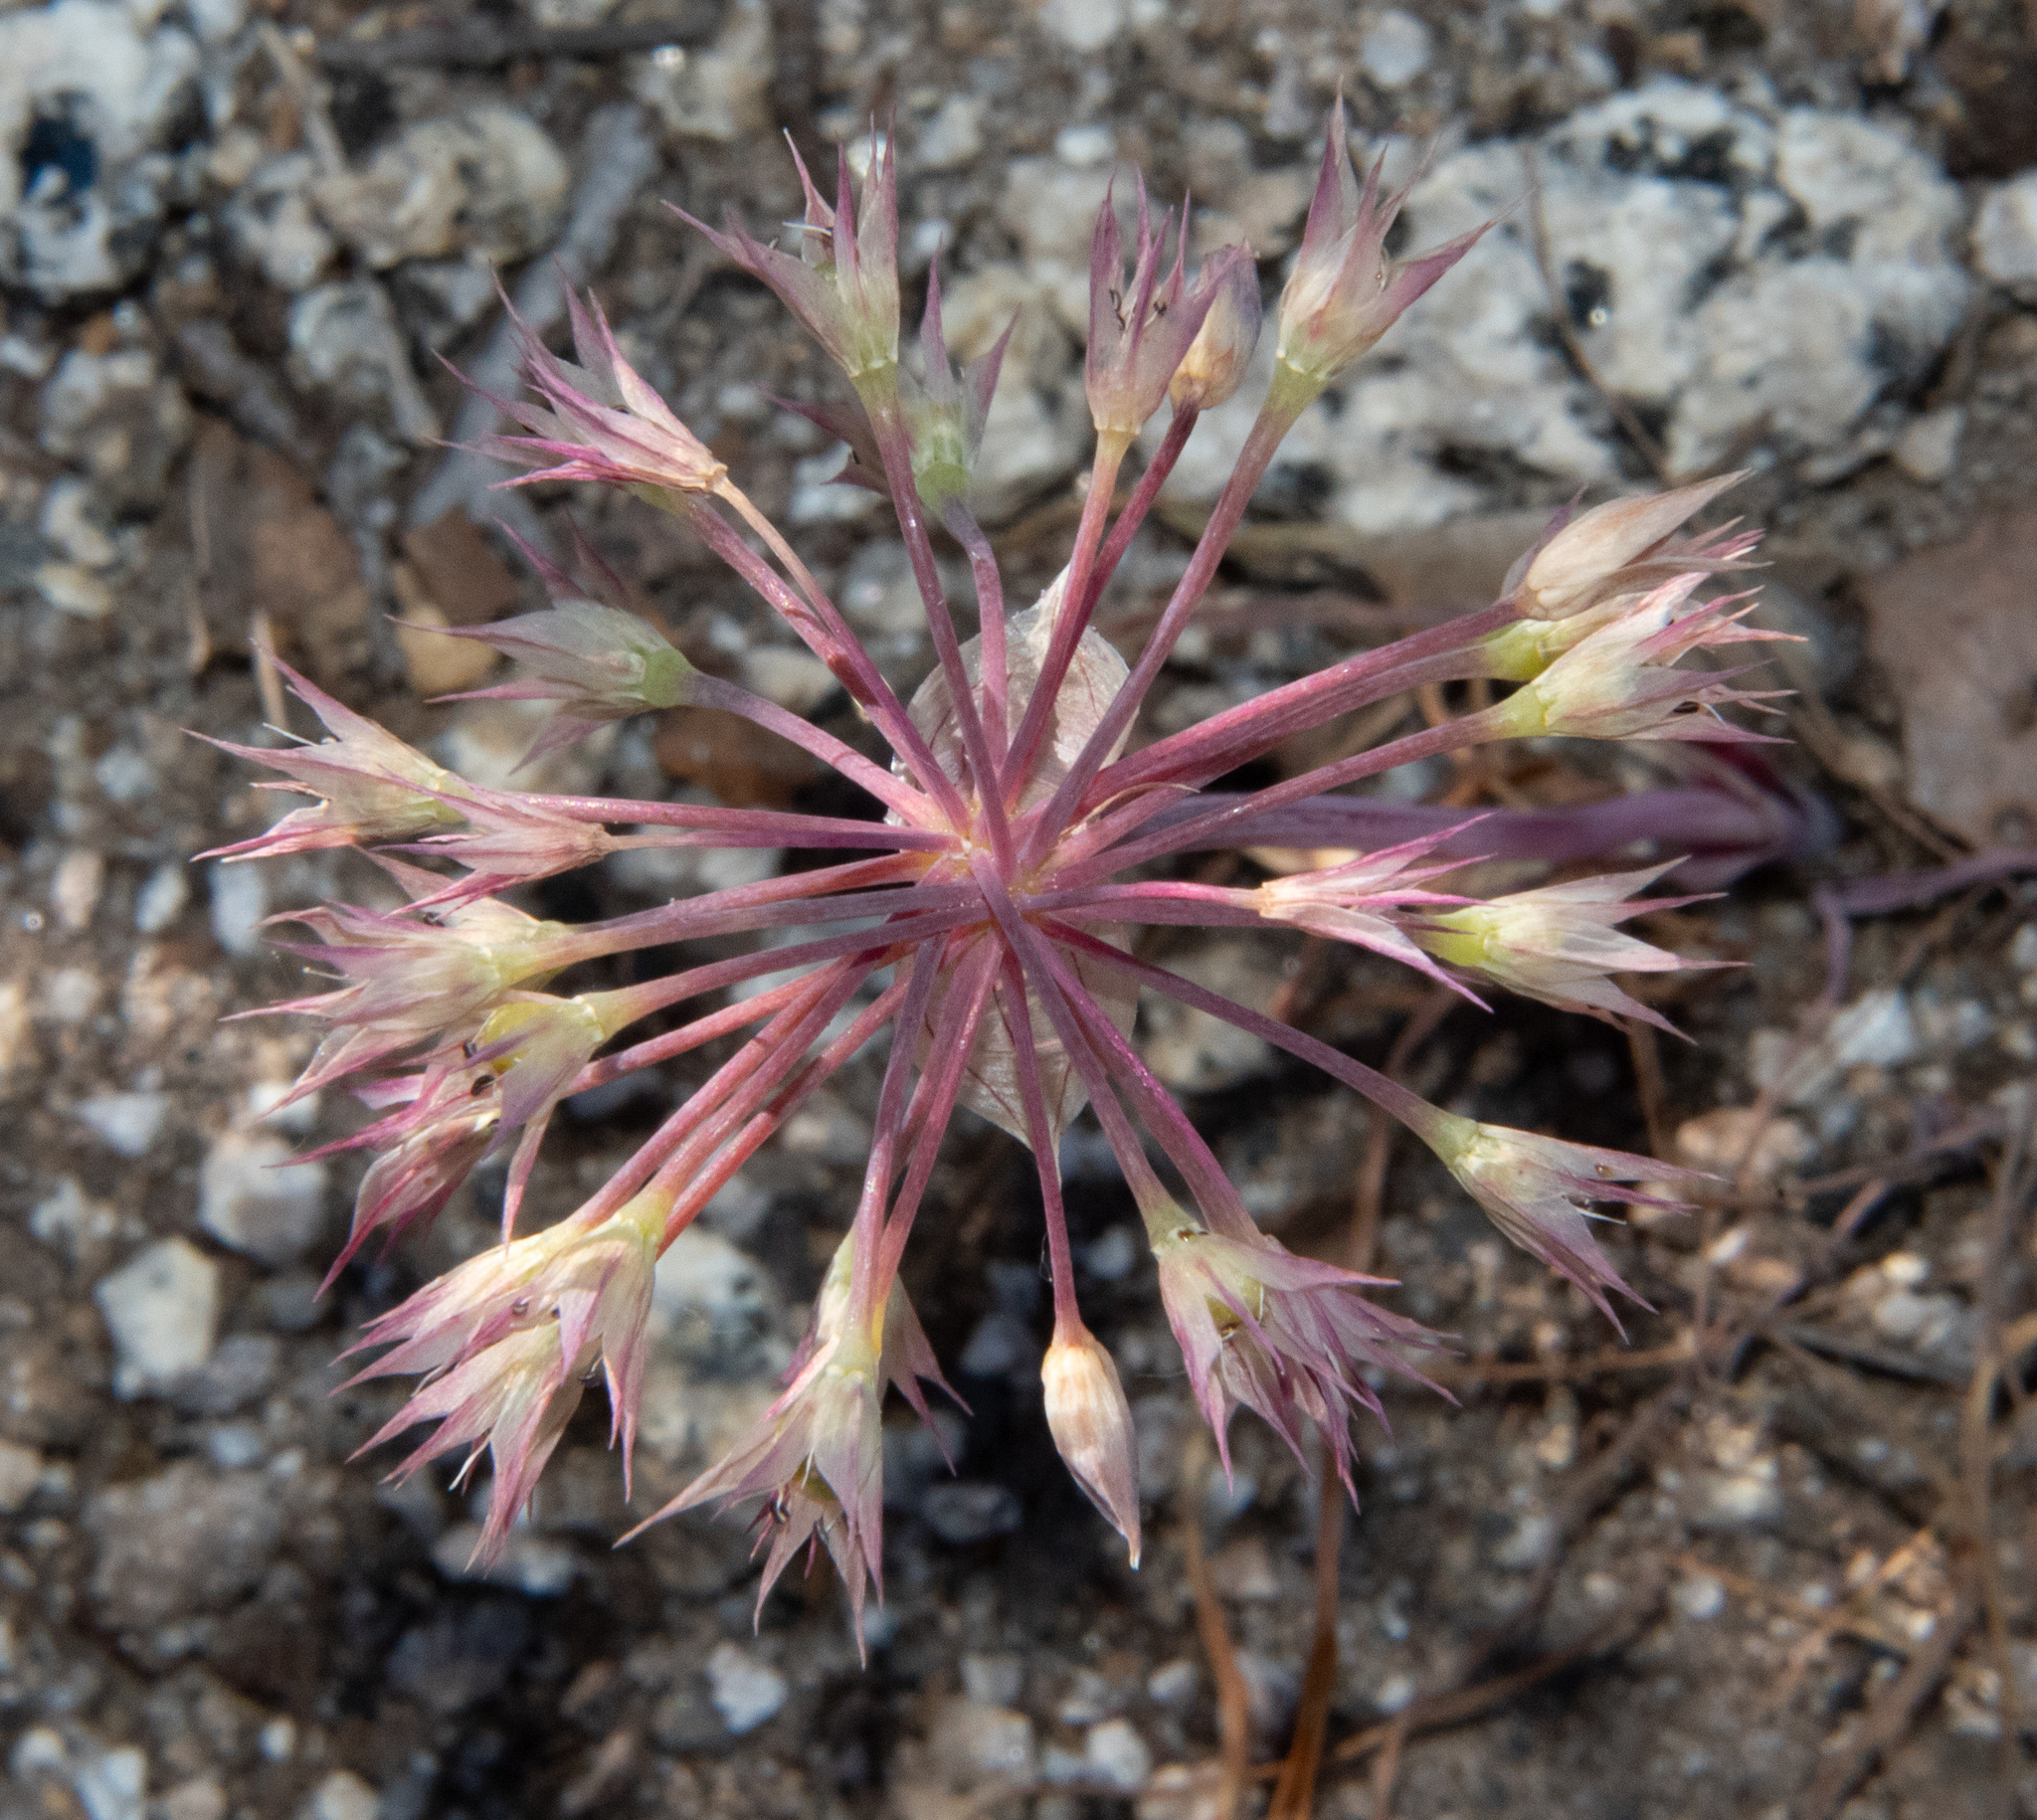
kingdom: Plantae
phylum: Tracheophyta
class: Liliopsida
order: Asparagales
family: Amaryllidaceae
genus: Allium
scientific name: Allium campanulatum
